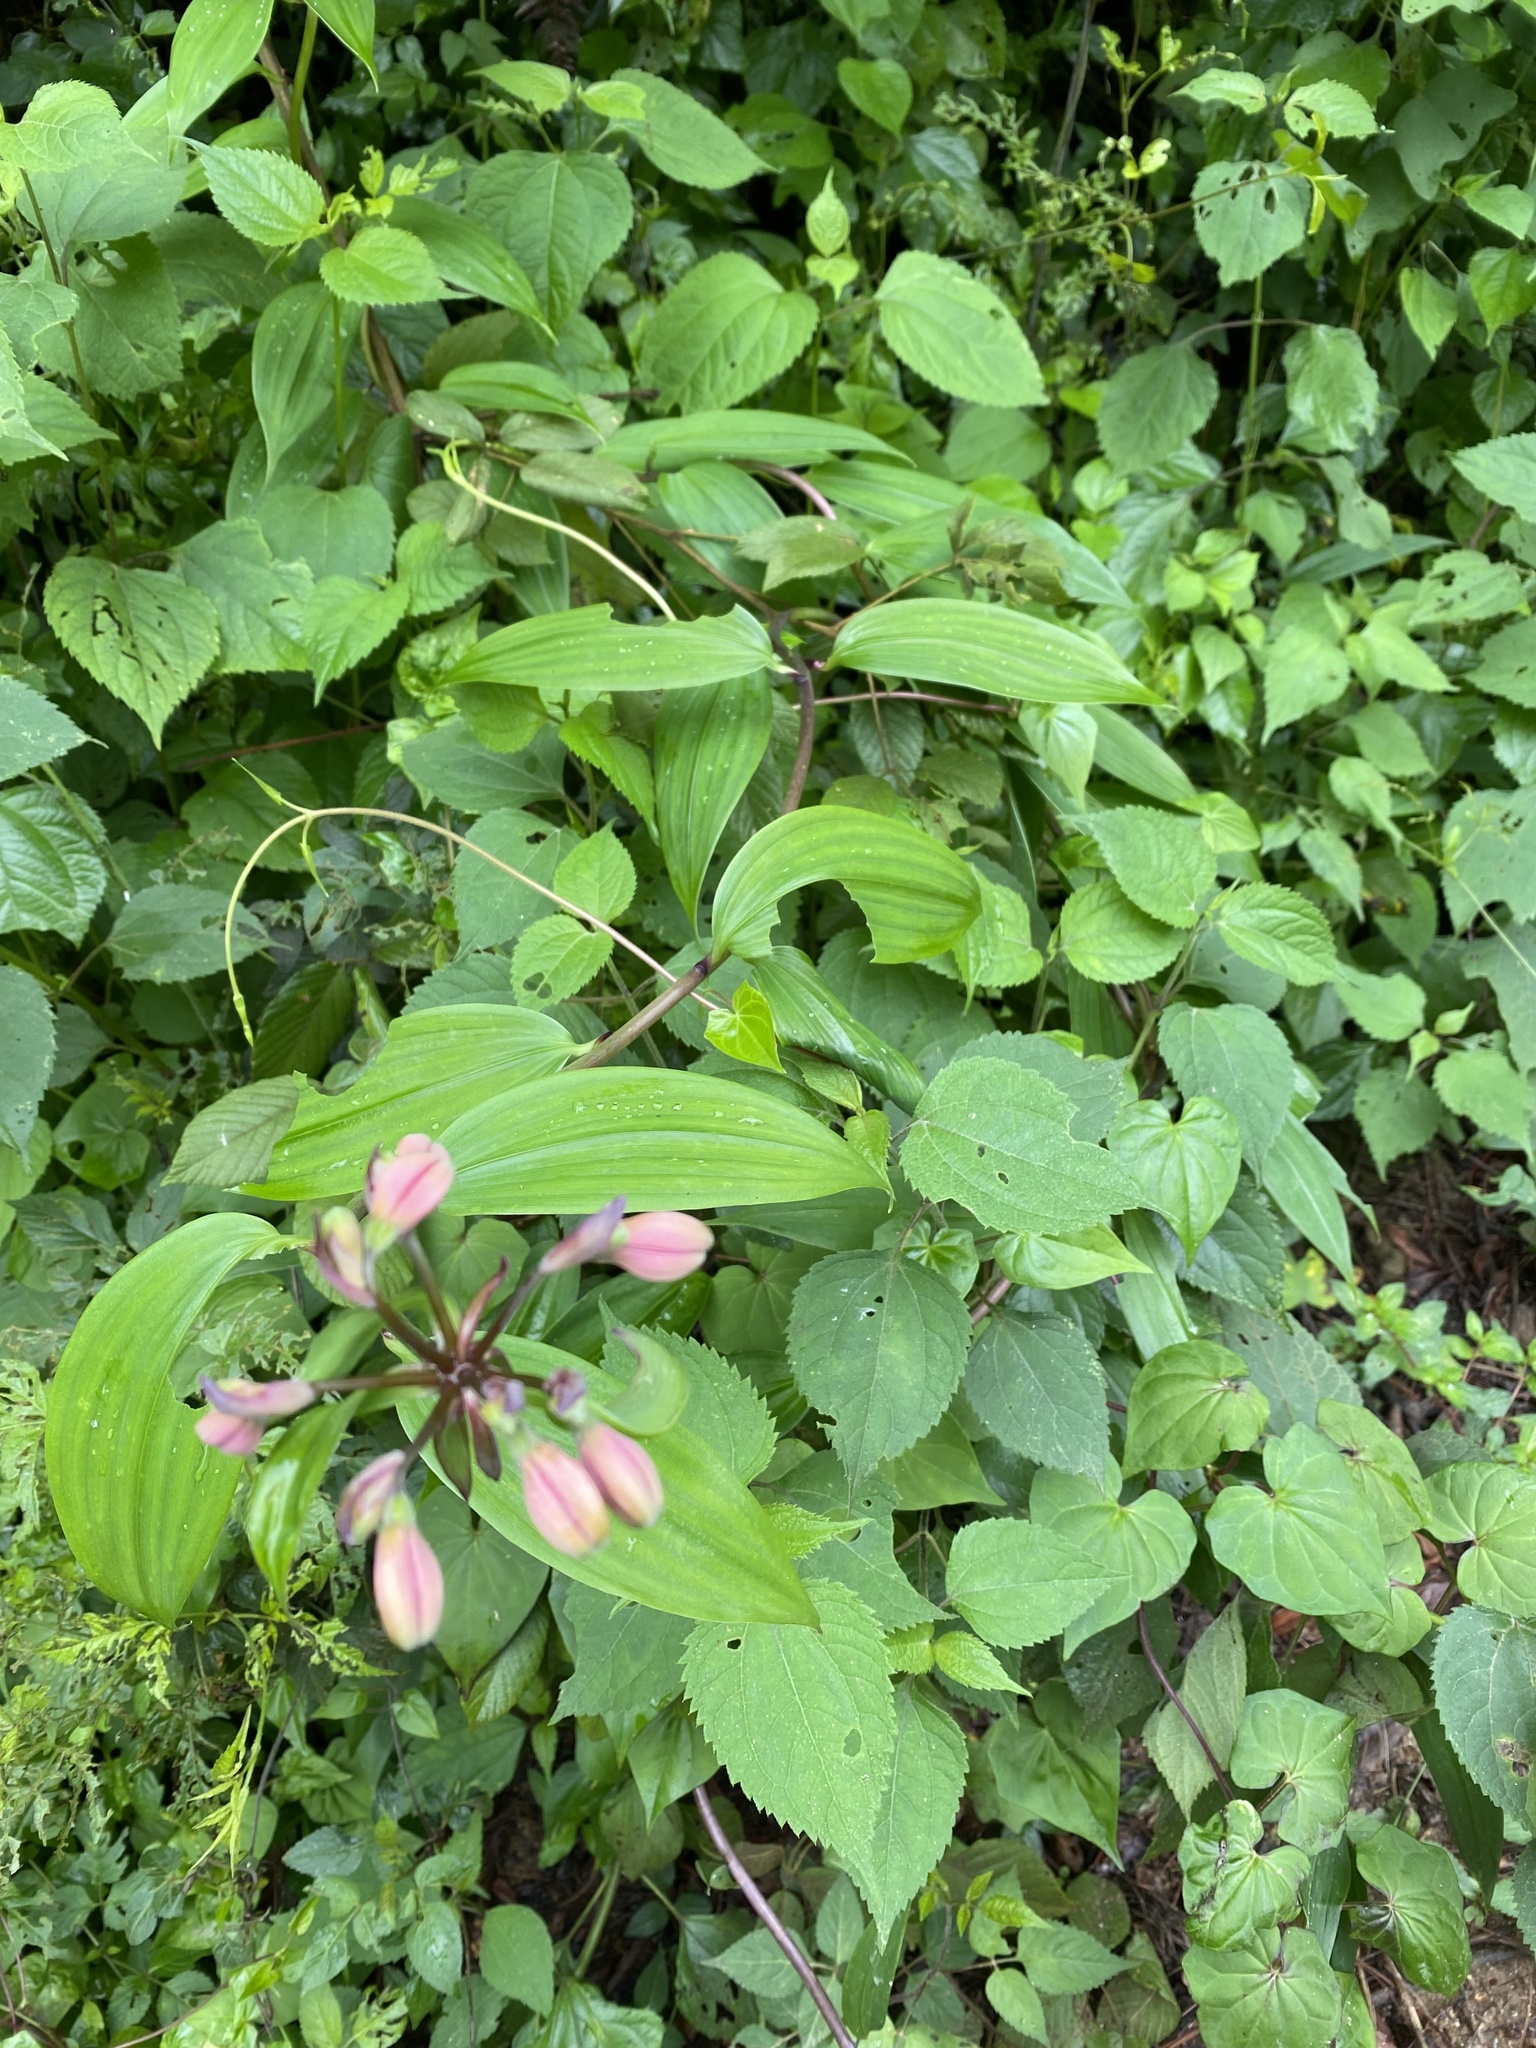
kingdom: Plantae
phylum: Tracheophyta
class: Liliopsida
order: Liliales
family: Alstroemeriaceae
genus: Bomarea
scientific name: Bomarea edulis
